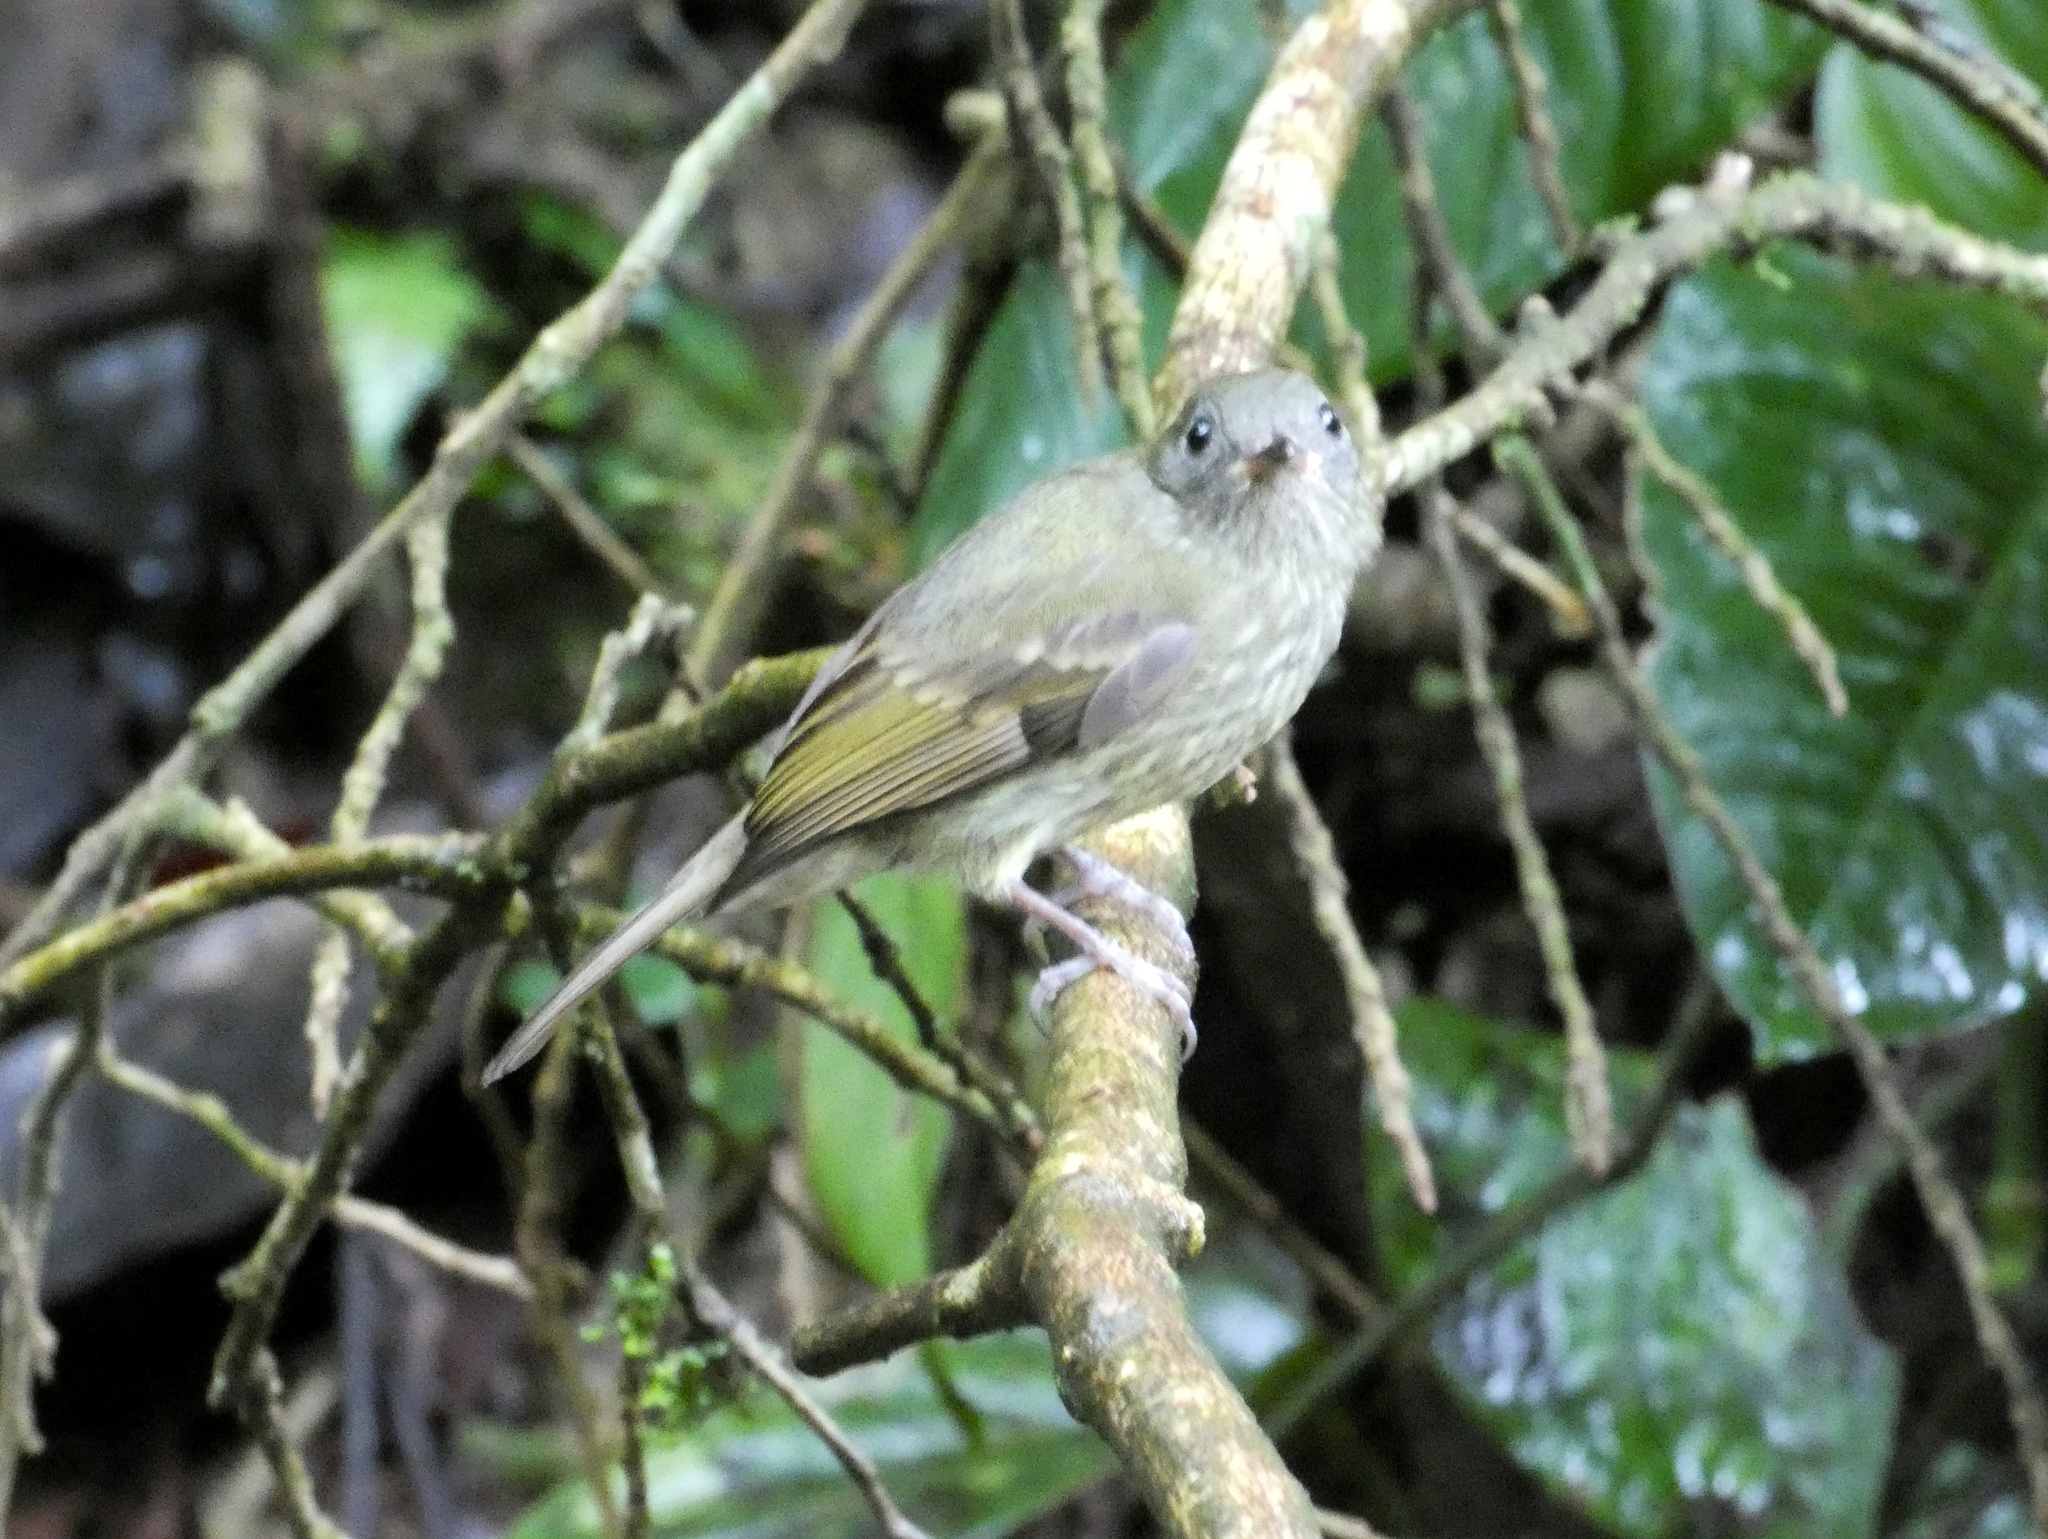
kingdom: Animalia
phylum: Chordata
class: Aves
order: Passeriformes
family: Tyrannidae
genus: Mionectes
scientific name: Mionectes galbinus
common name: Olive-striped flycatcher
